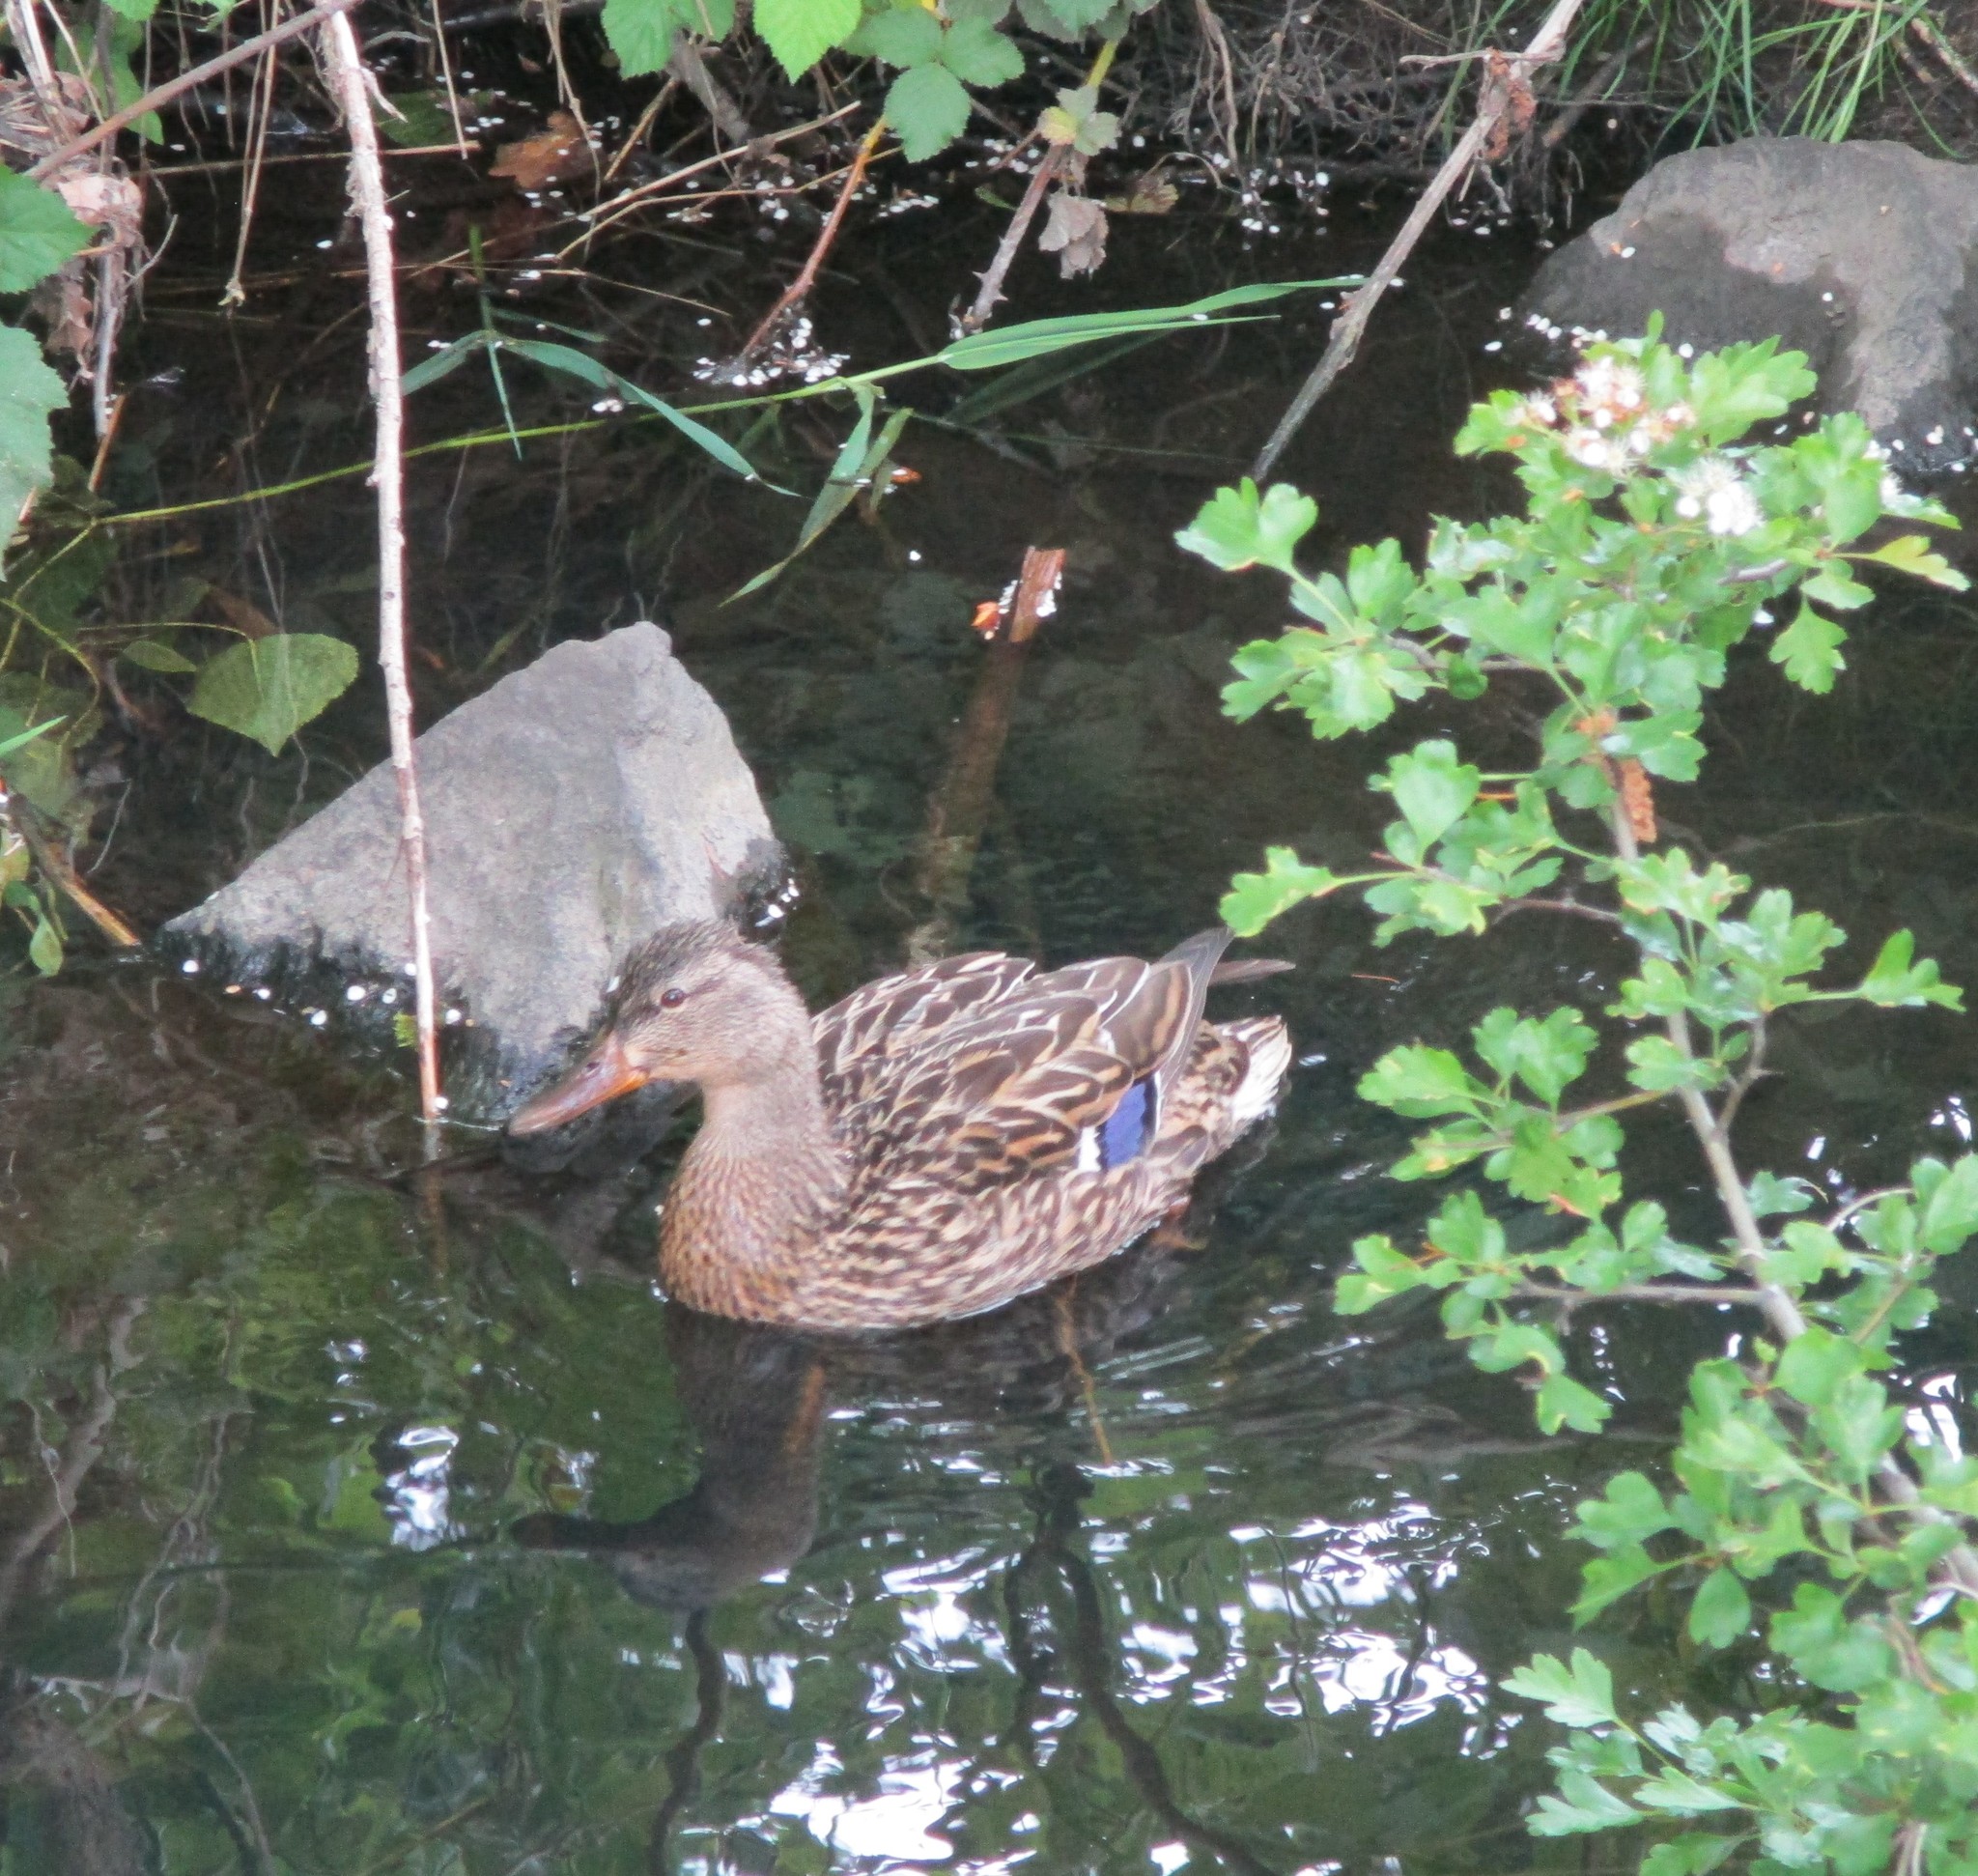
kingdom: Animalia
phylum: Chordata
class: Aves
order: Anseriformes
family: Anatidae
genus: Anas
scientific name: Anas platyrhynchos
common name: Mallard
